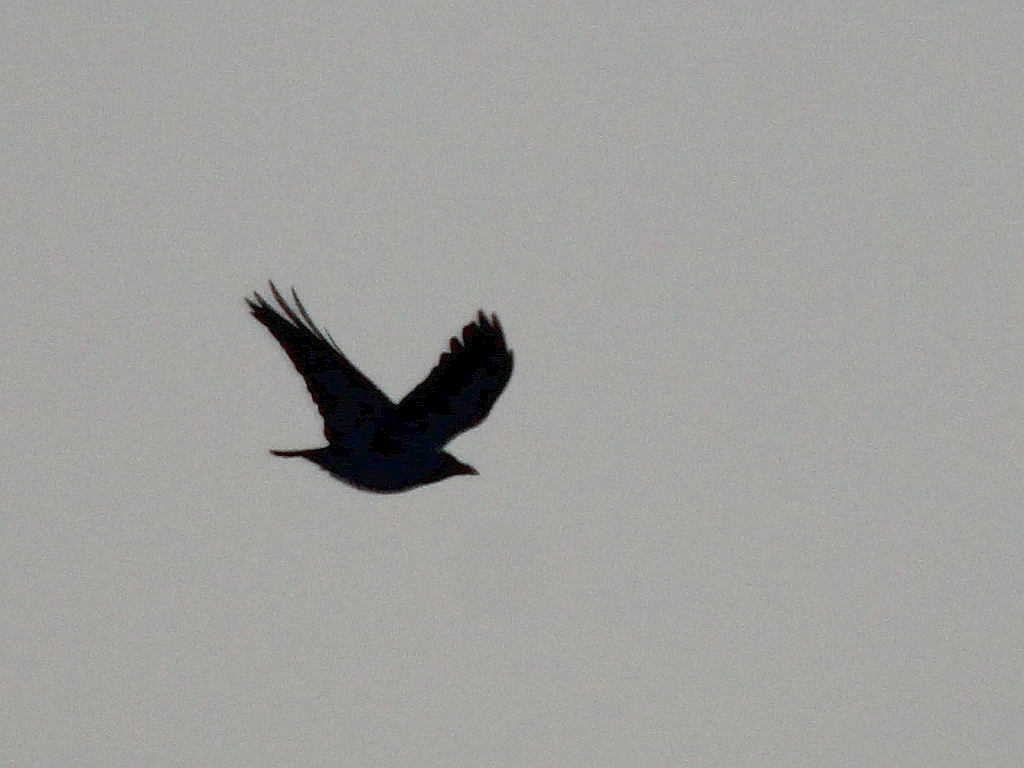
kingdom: Animalia
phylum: Chordata
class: Aves
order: Passeriformes
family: Corvidae
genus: Corvus
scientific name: Corvus corone
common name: Carrion crow
